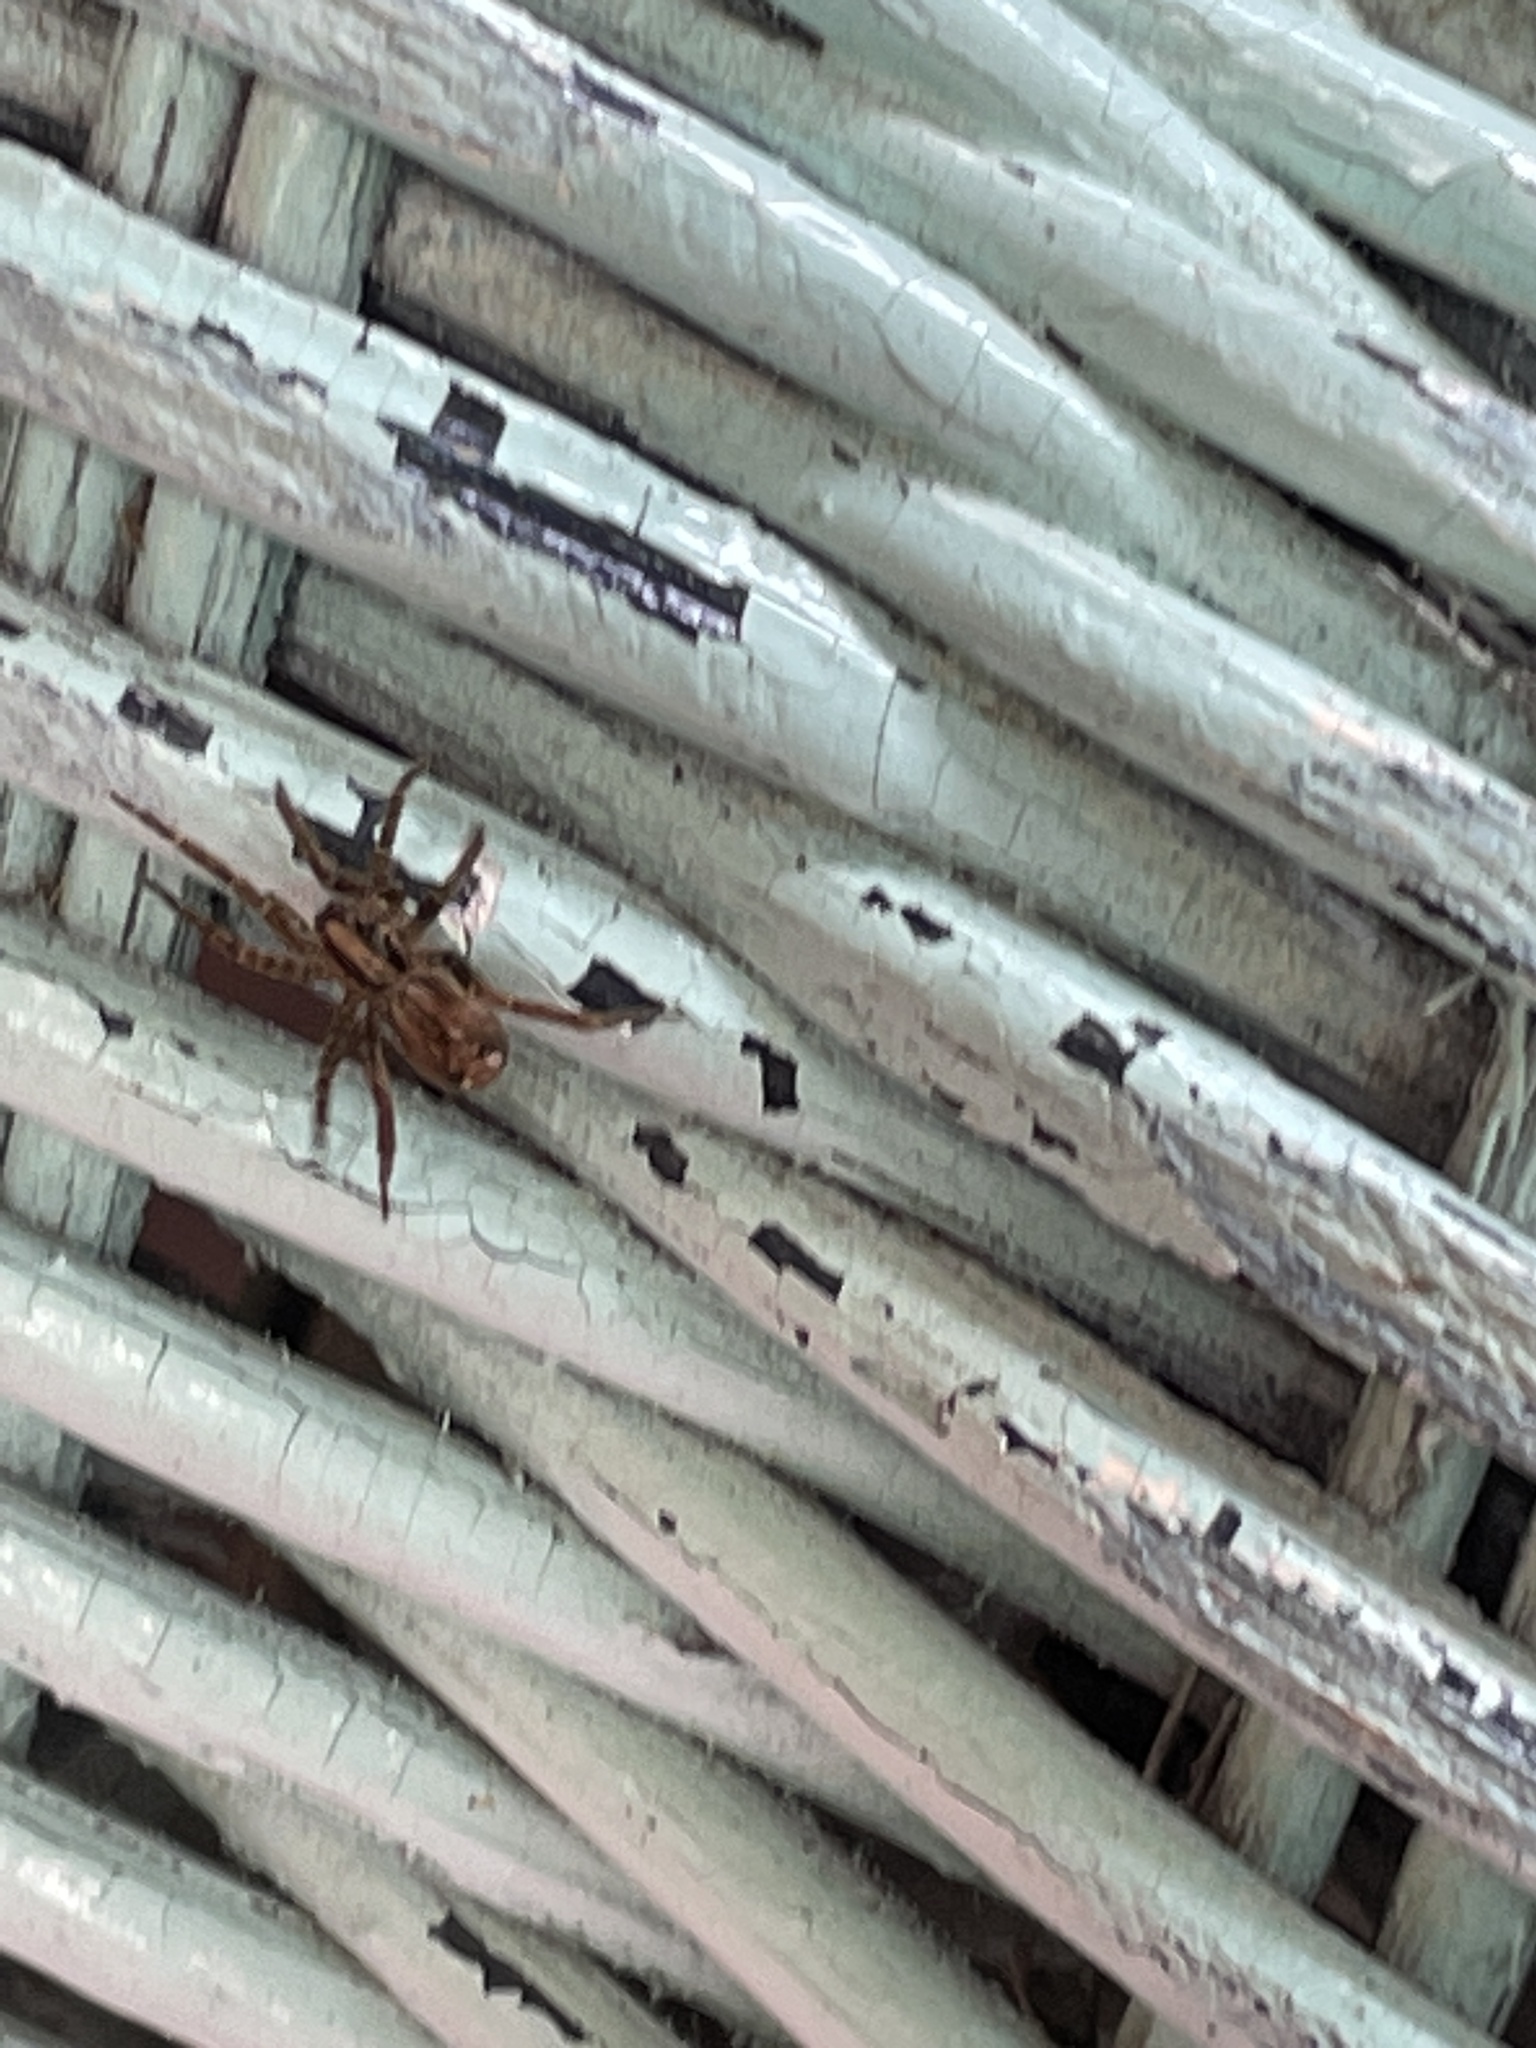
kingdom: Animalia
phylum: Arthropoda
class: Arachnida
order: Araneae
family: Miturgidae
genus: Hestimodema
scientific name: Hestimodema
